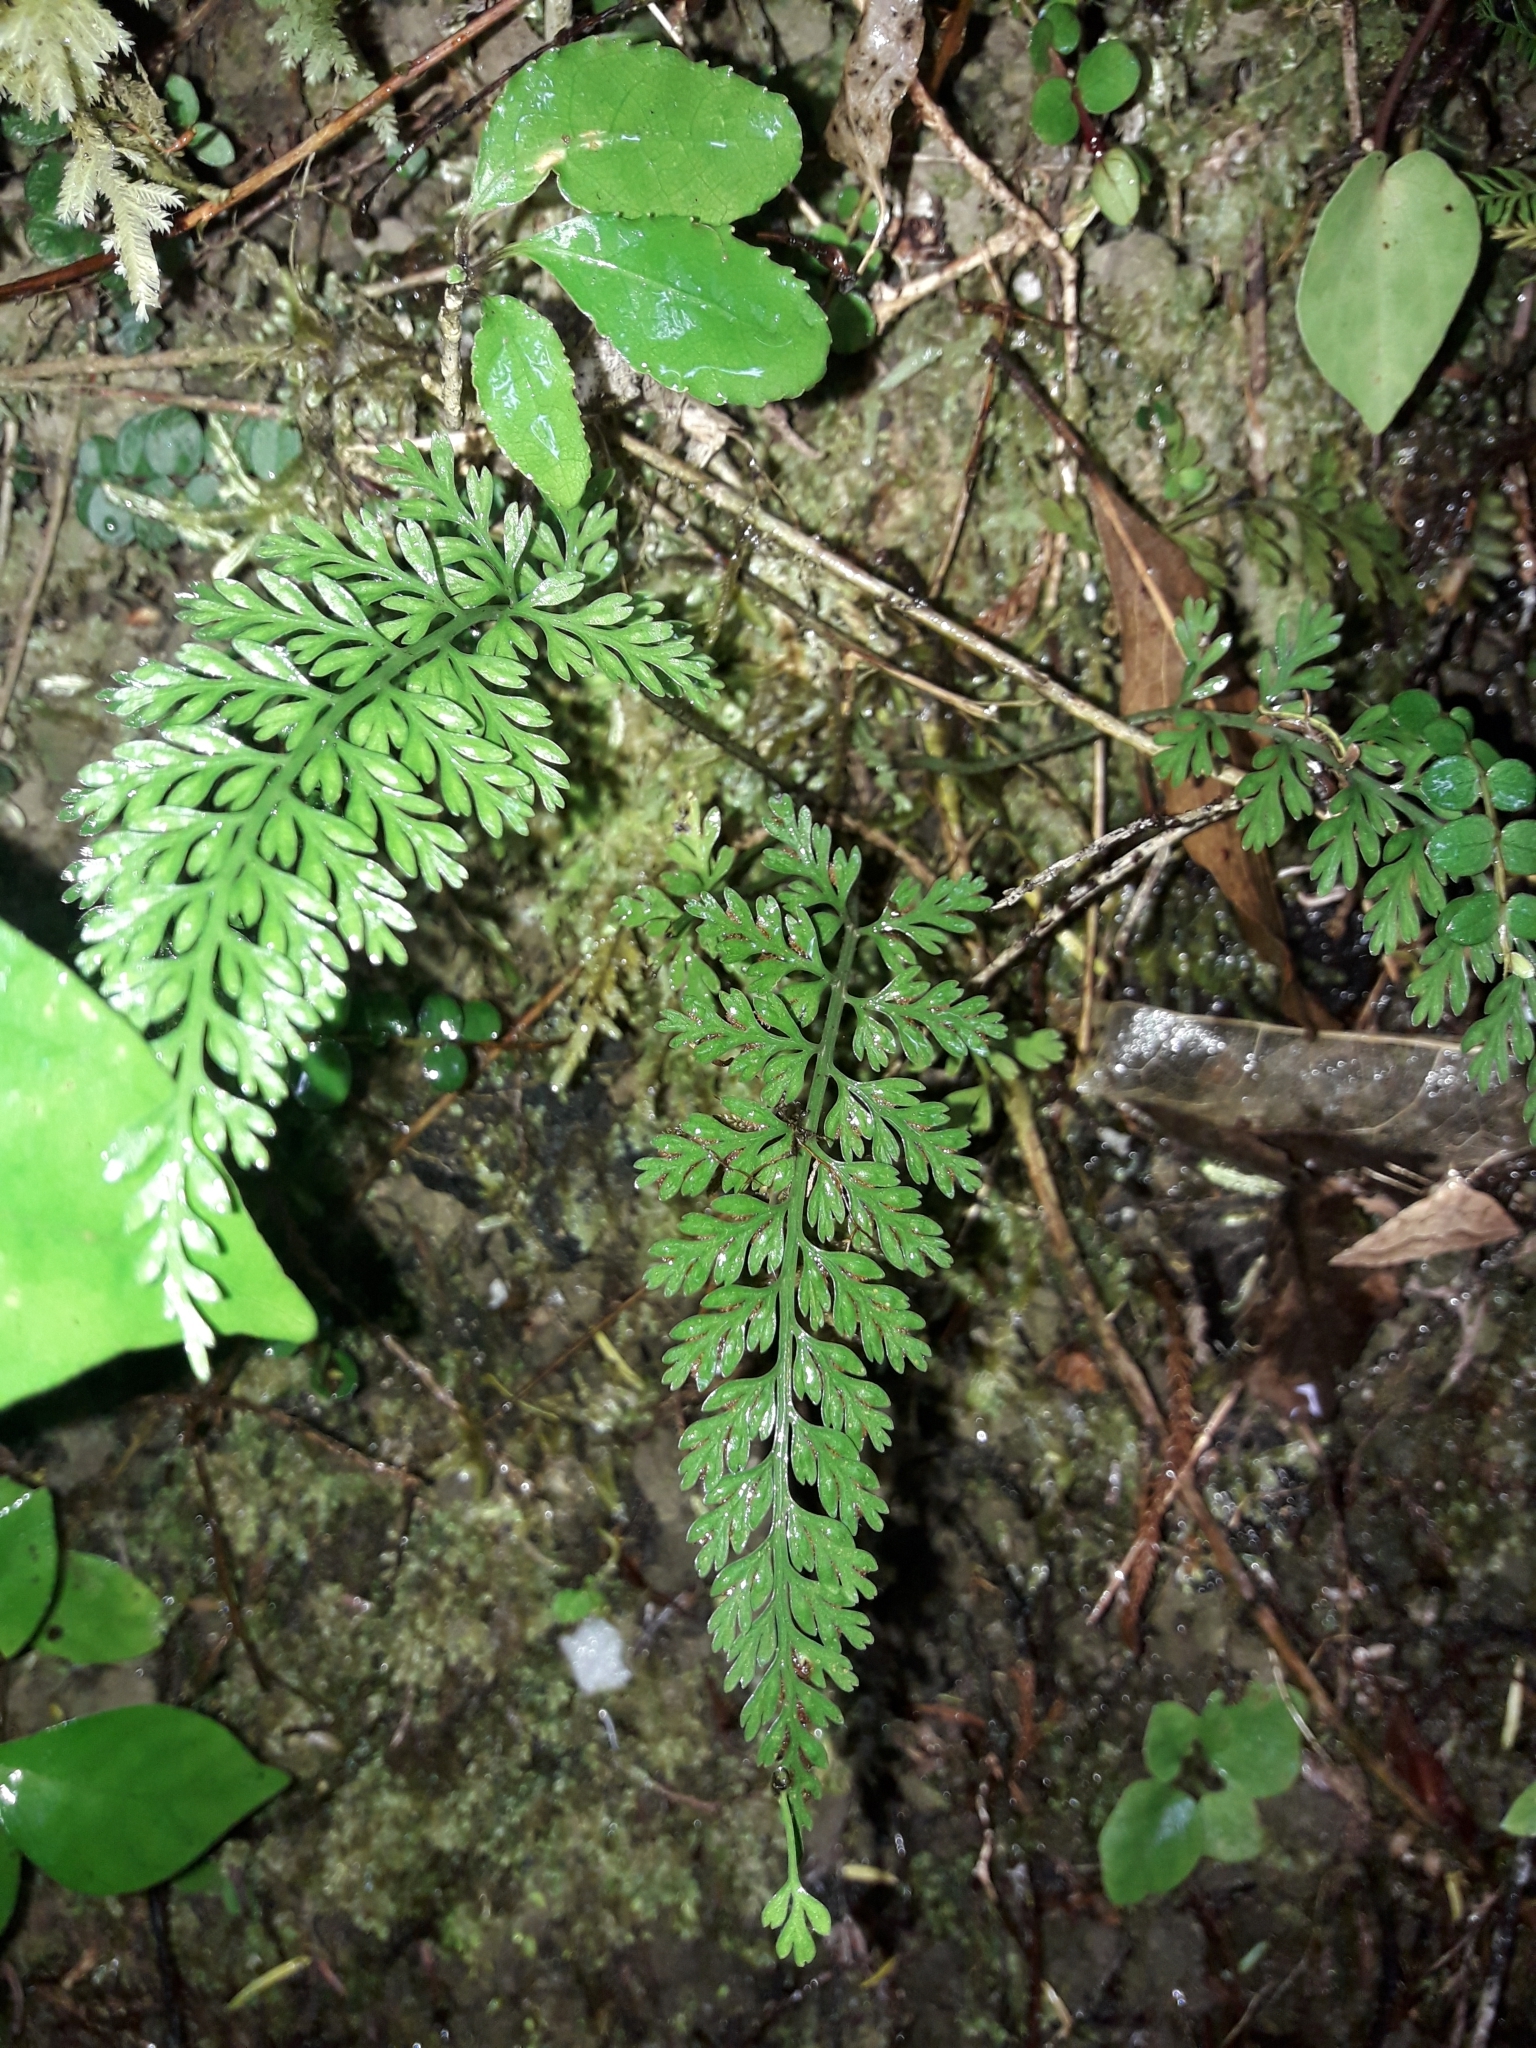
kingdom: Plantae
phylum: Tracheophyta
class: Polypodiopsida
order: Polypodiales
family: Aspleniaceae
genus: Asplenium
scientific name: Asplenium
